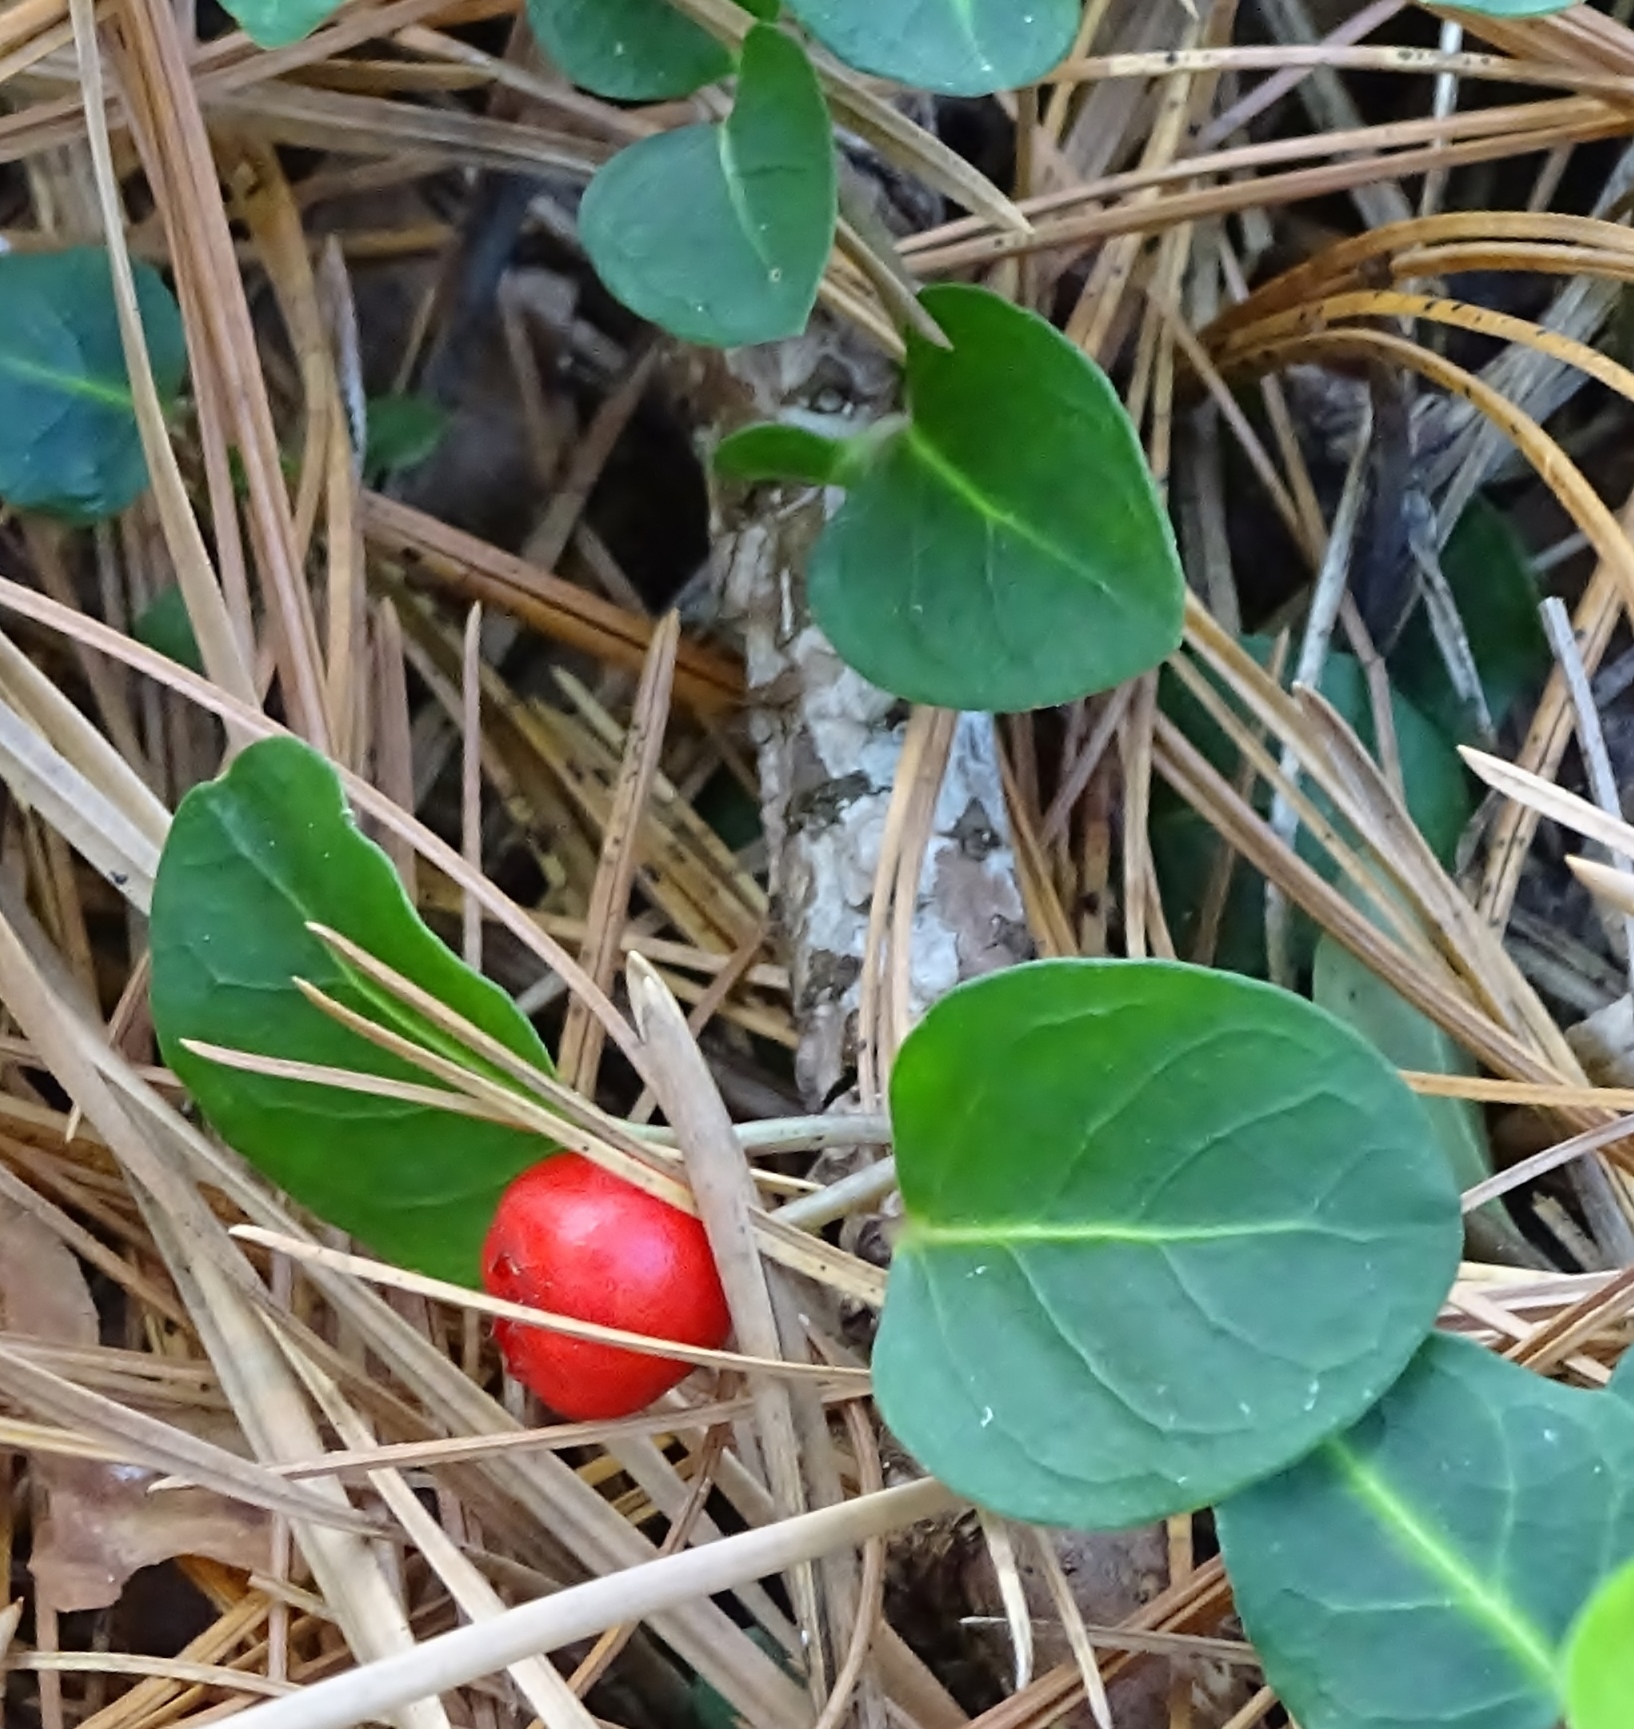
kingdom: Plantae
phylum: Tracheophyta
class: Magnoliopsida
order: Gentianales
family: Rubiaceae
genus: Mitchella
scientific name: Mitchella repens
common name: Partridge-berry
